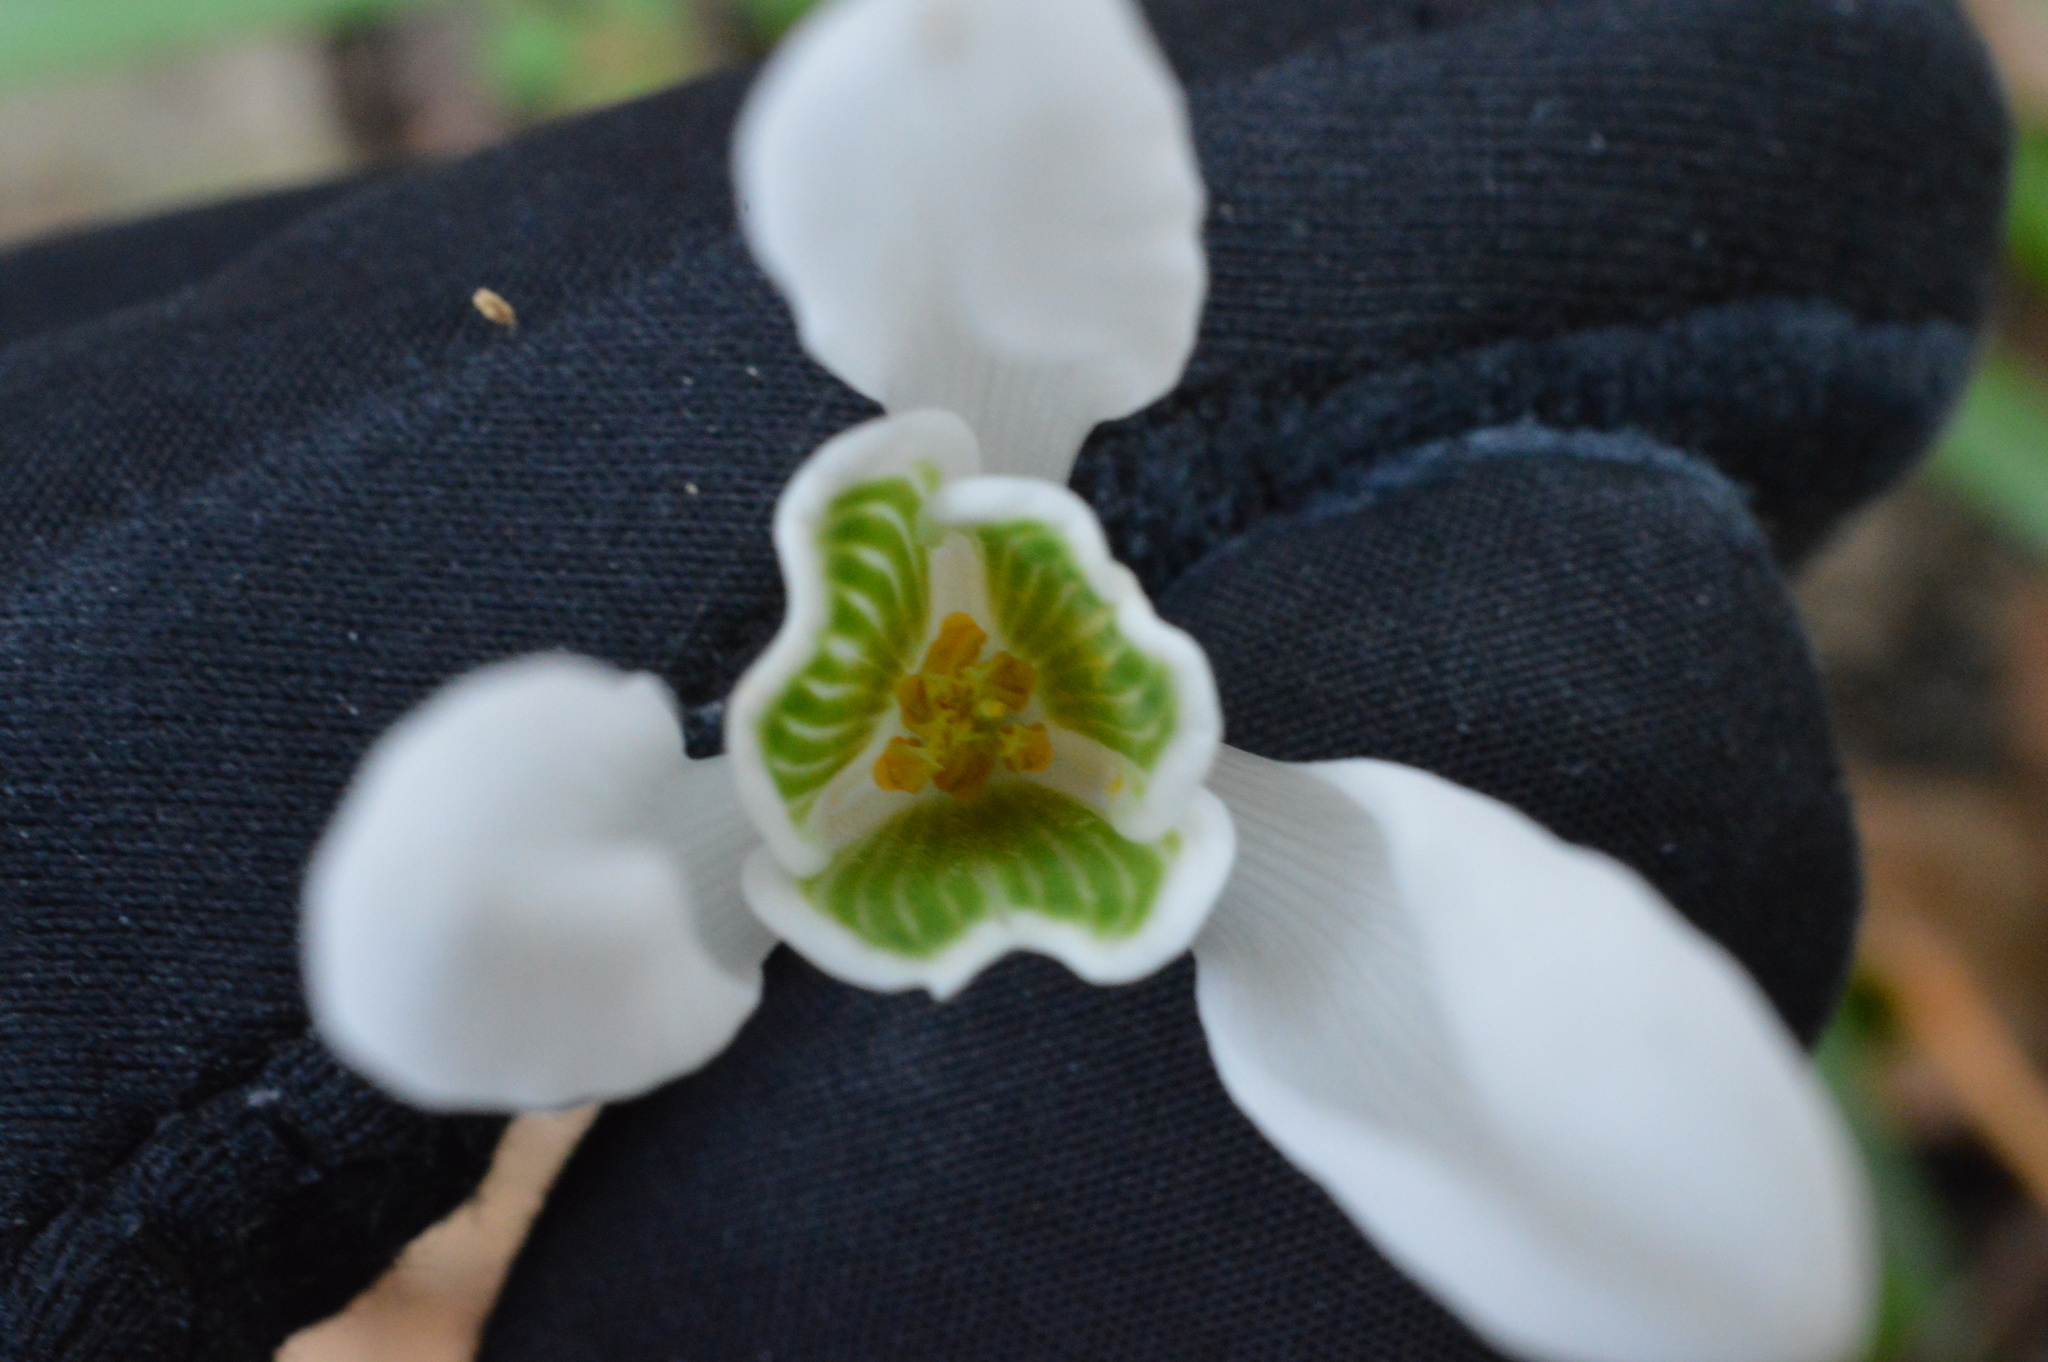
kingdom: Plantae
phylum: Tracheophyta
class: Liliopsida
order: Asparagales
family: Amaryllidaceae
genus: Galanthus
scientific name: Galanthus nivalis
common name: Snowdrop
